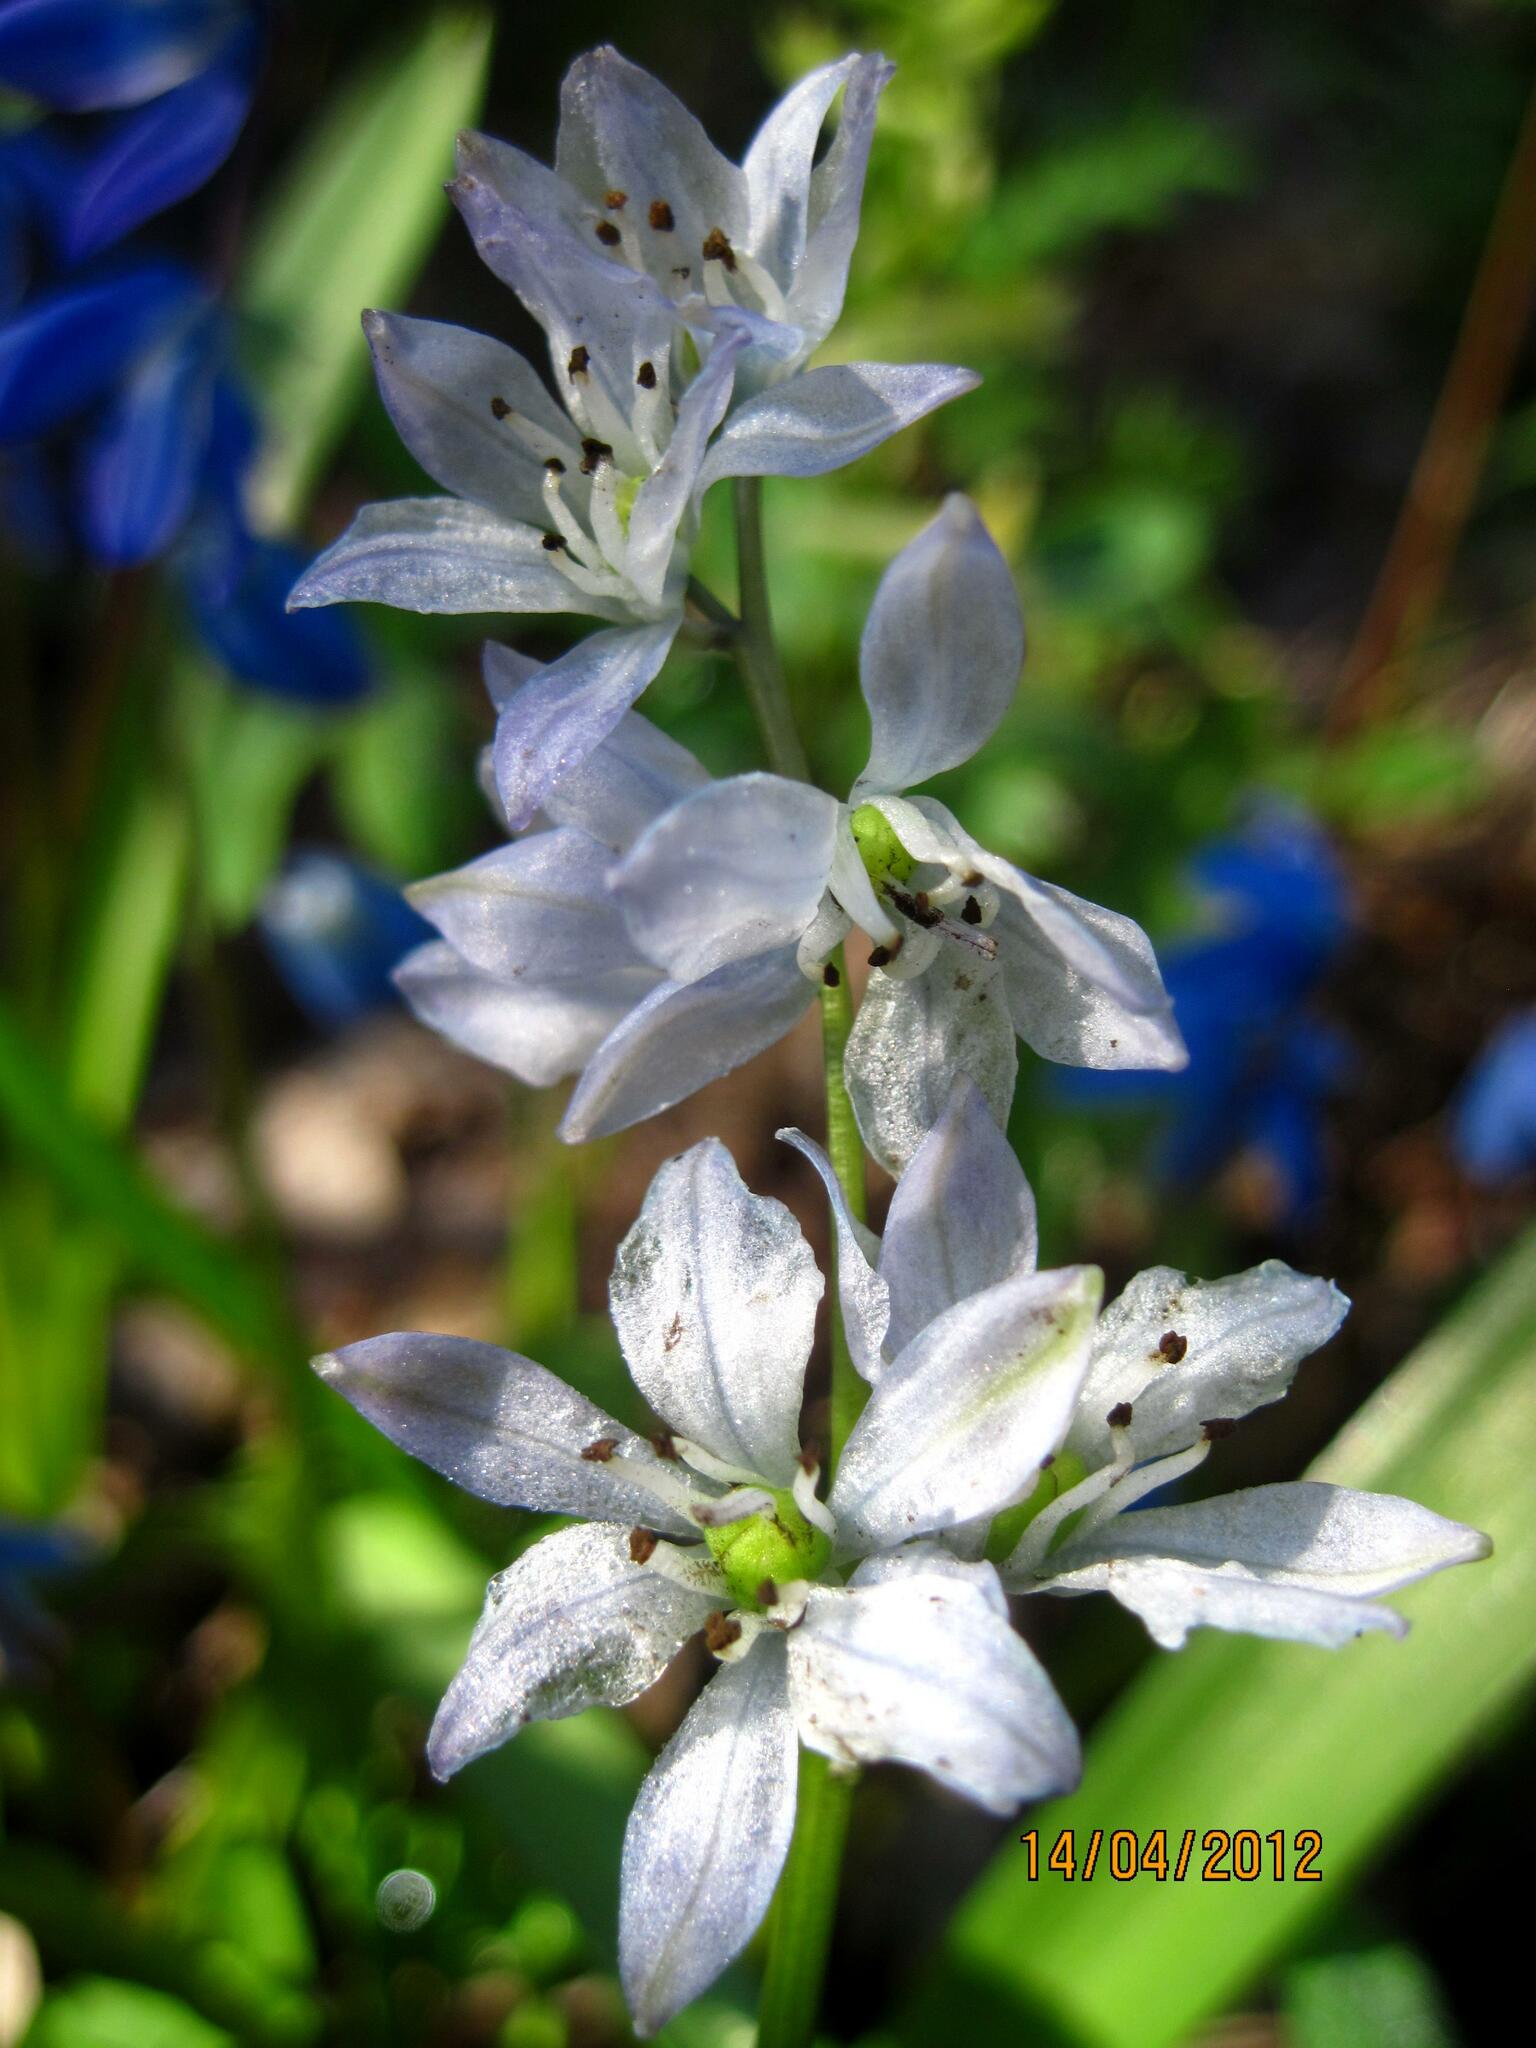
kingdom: Plantae
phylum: Tracheophyta
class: Liliopsida
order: Asparagales
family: Asparagaceae
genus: Scilla
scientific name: Scilla siberica
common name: Siberian squill
